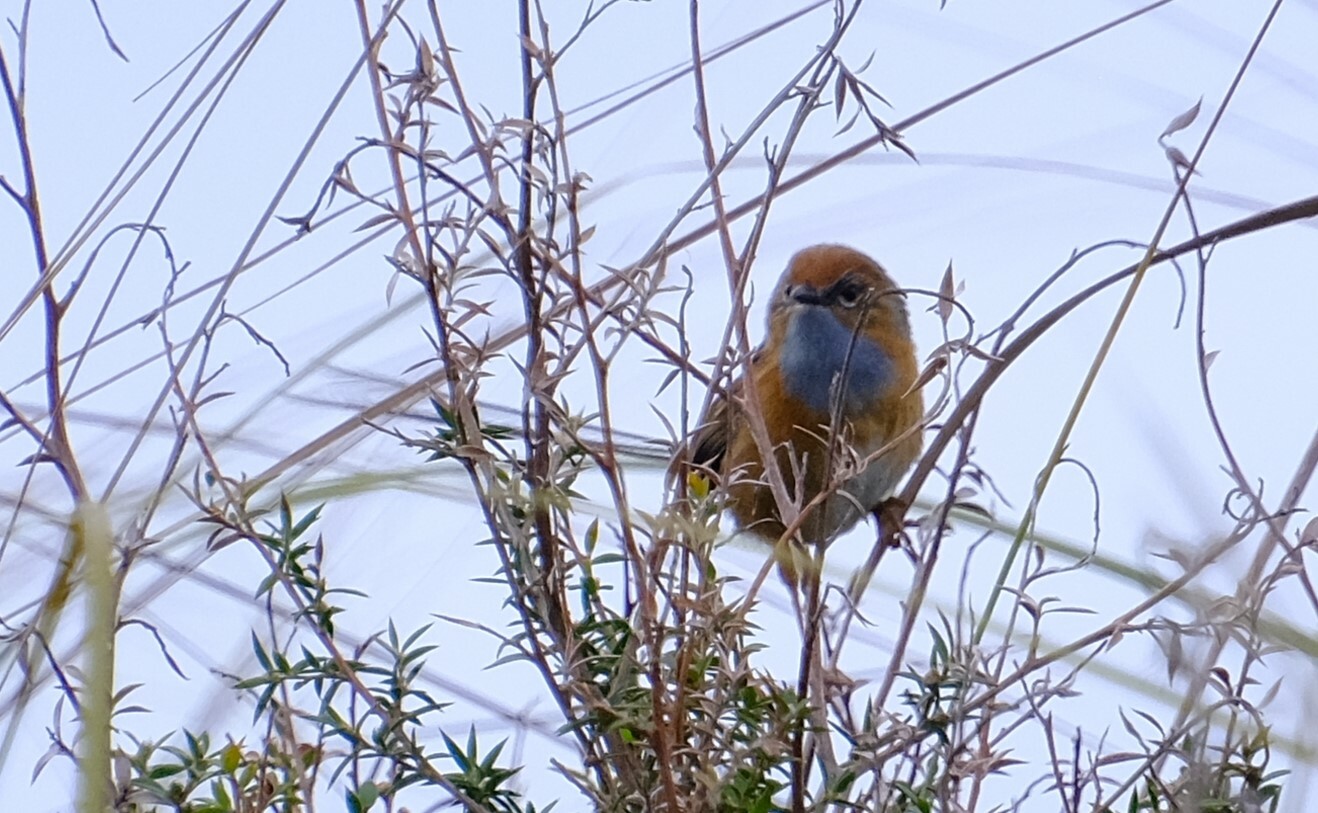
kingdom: Animalia
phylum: Chordata
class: Aves
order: Passeriformes
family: Maluridae
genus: Stipiturus
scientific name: Stipiturus malachurus
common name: Southern emu-wren
